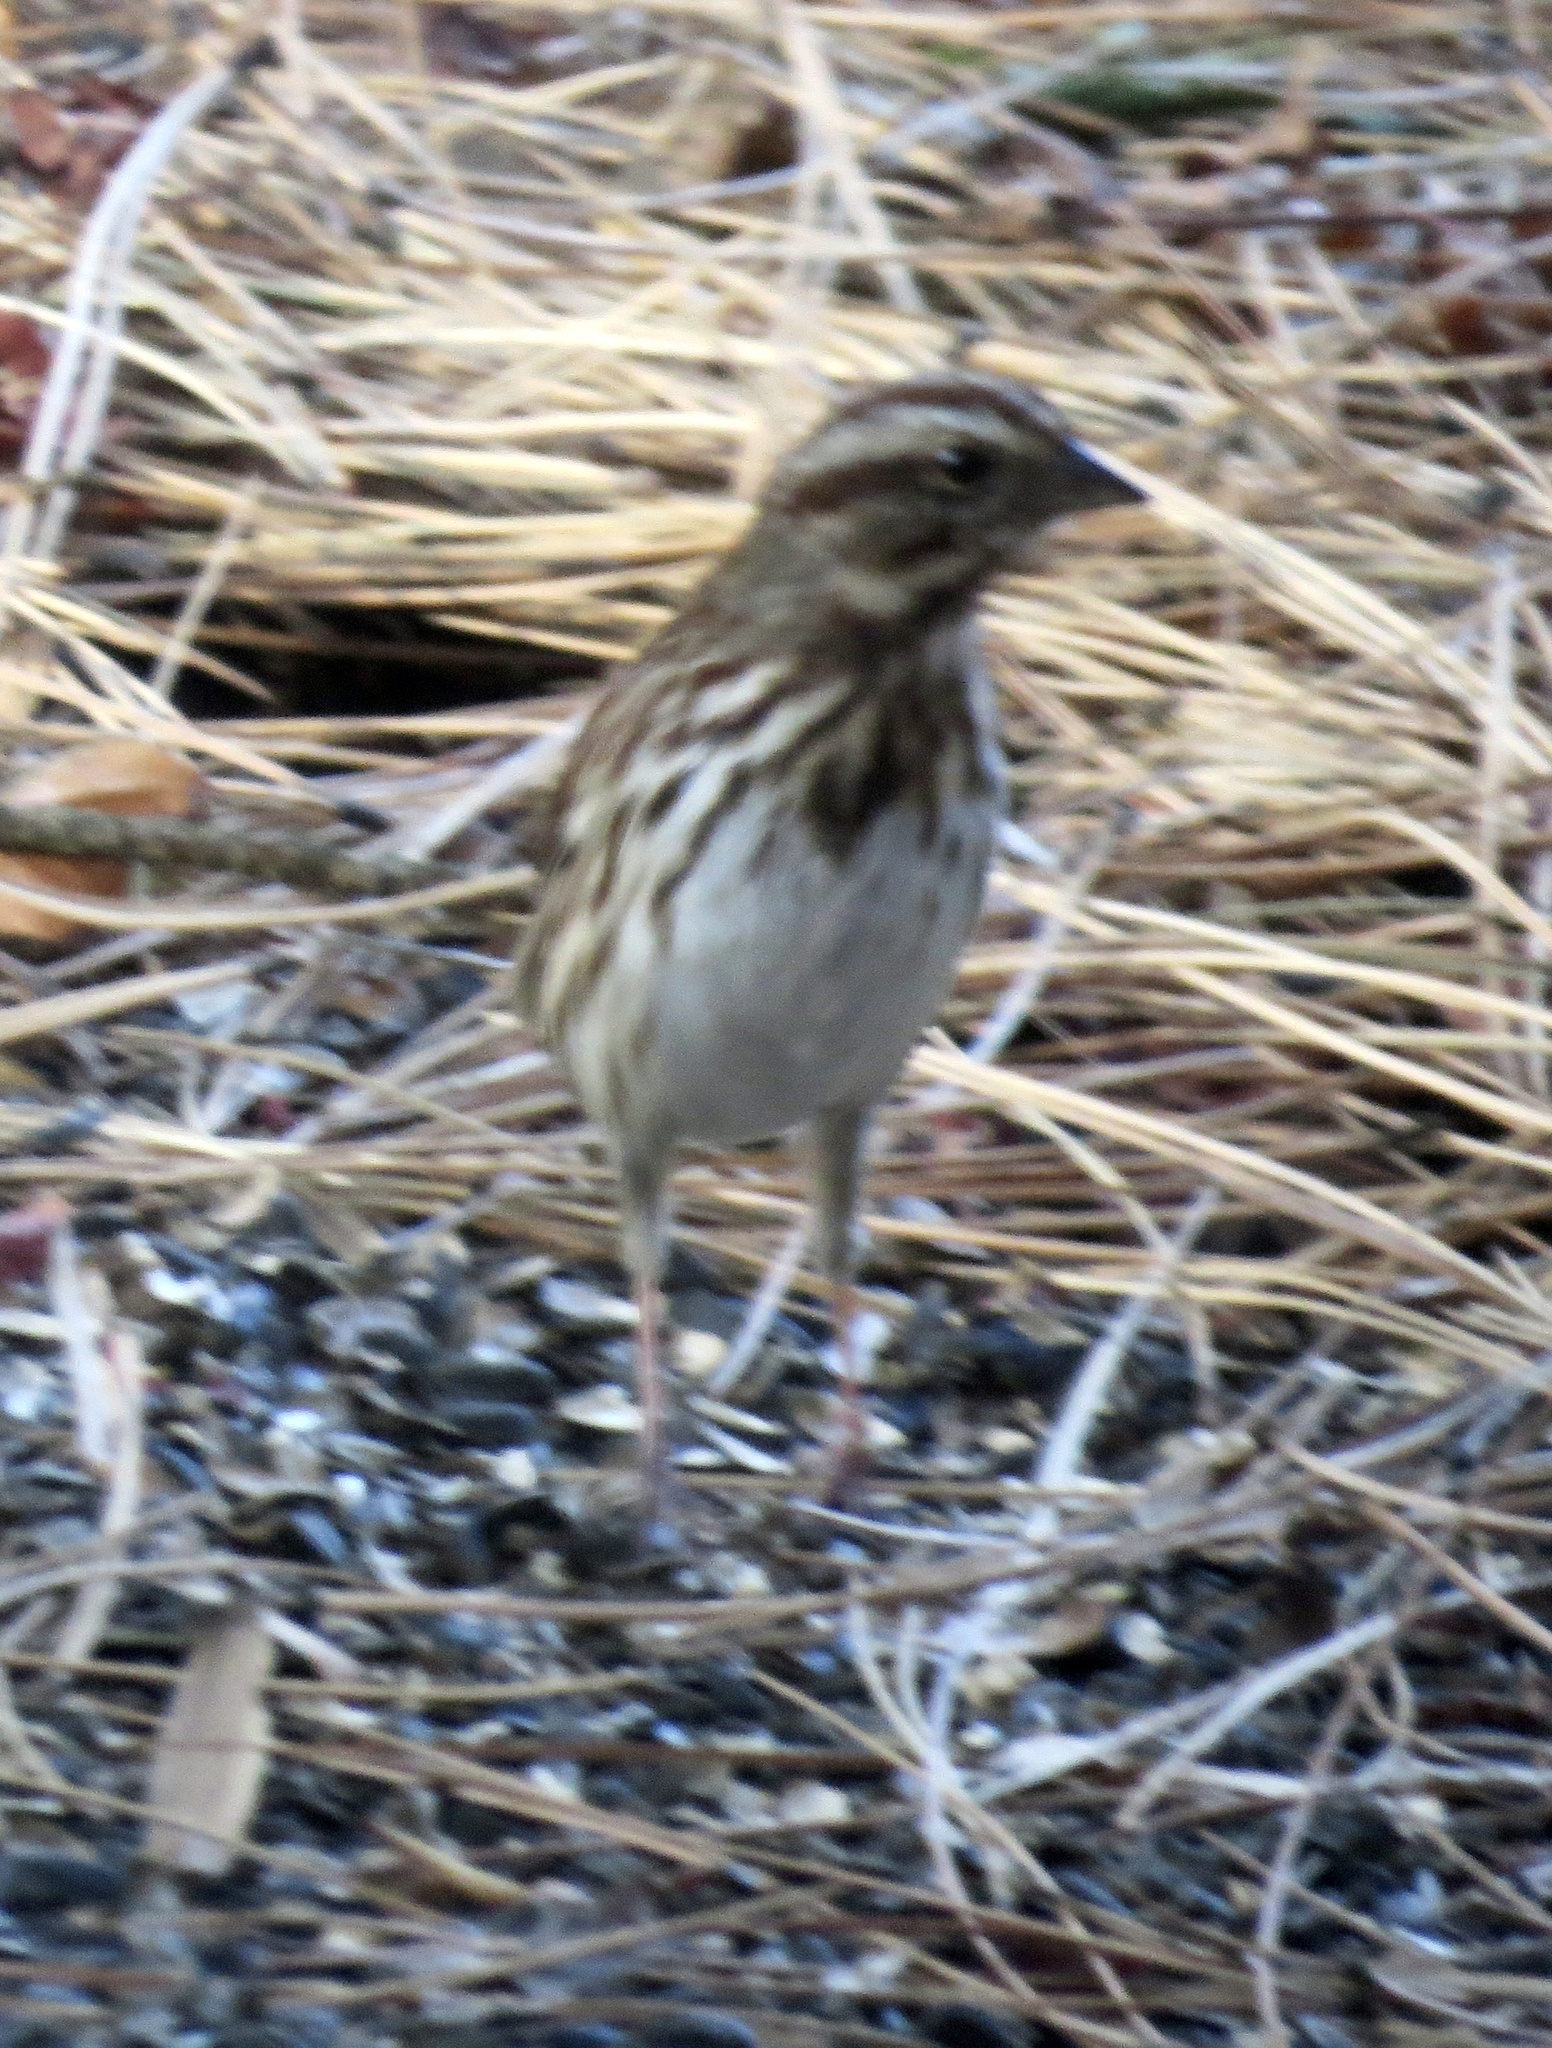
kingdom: Animalia
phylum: Chordata
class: Aves
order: Passeriformes
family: Passerellidae
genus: Melospiza
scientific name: Melospiza melodia
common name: Song sparrow
